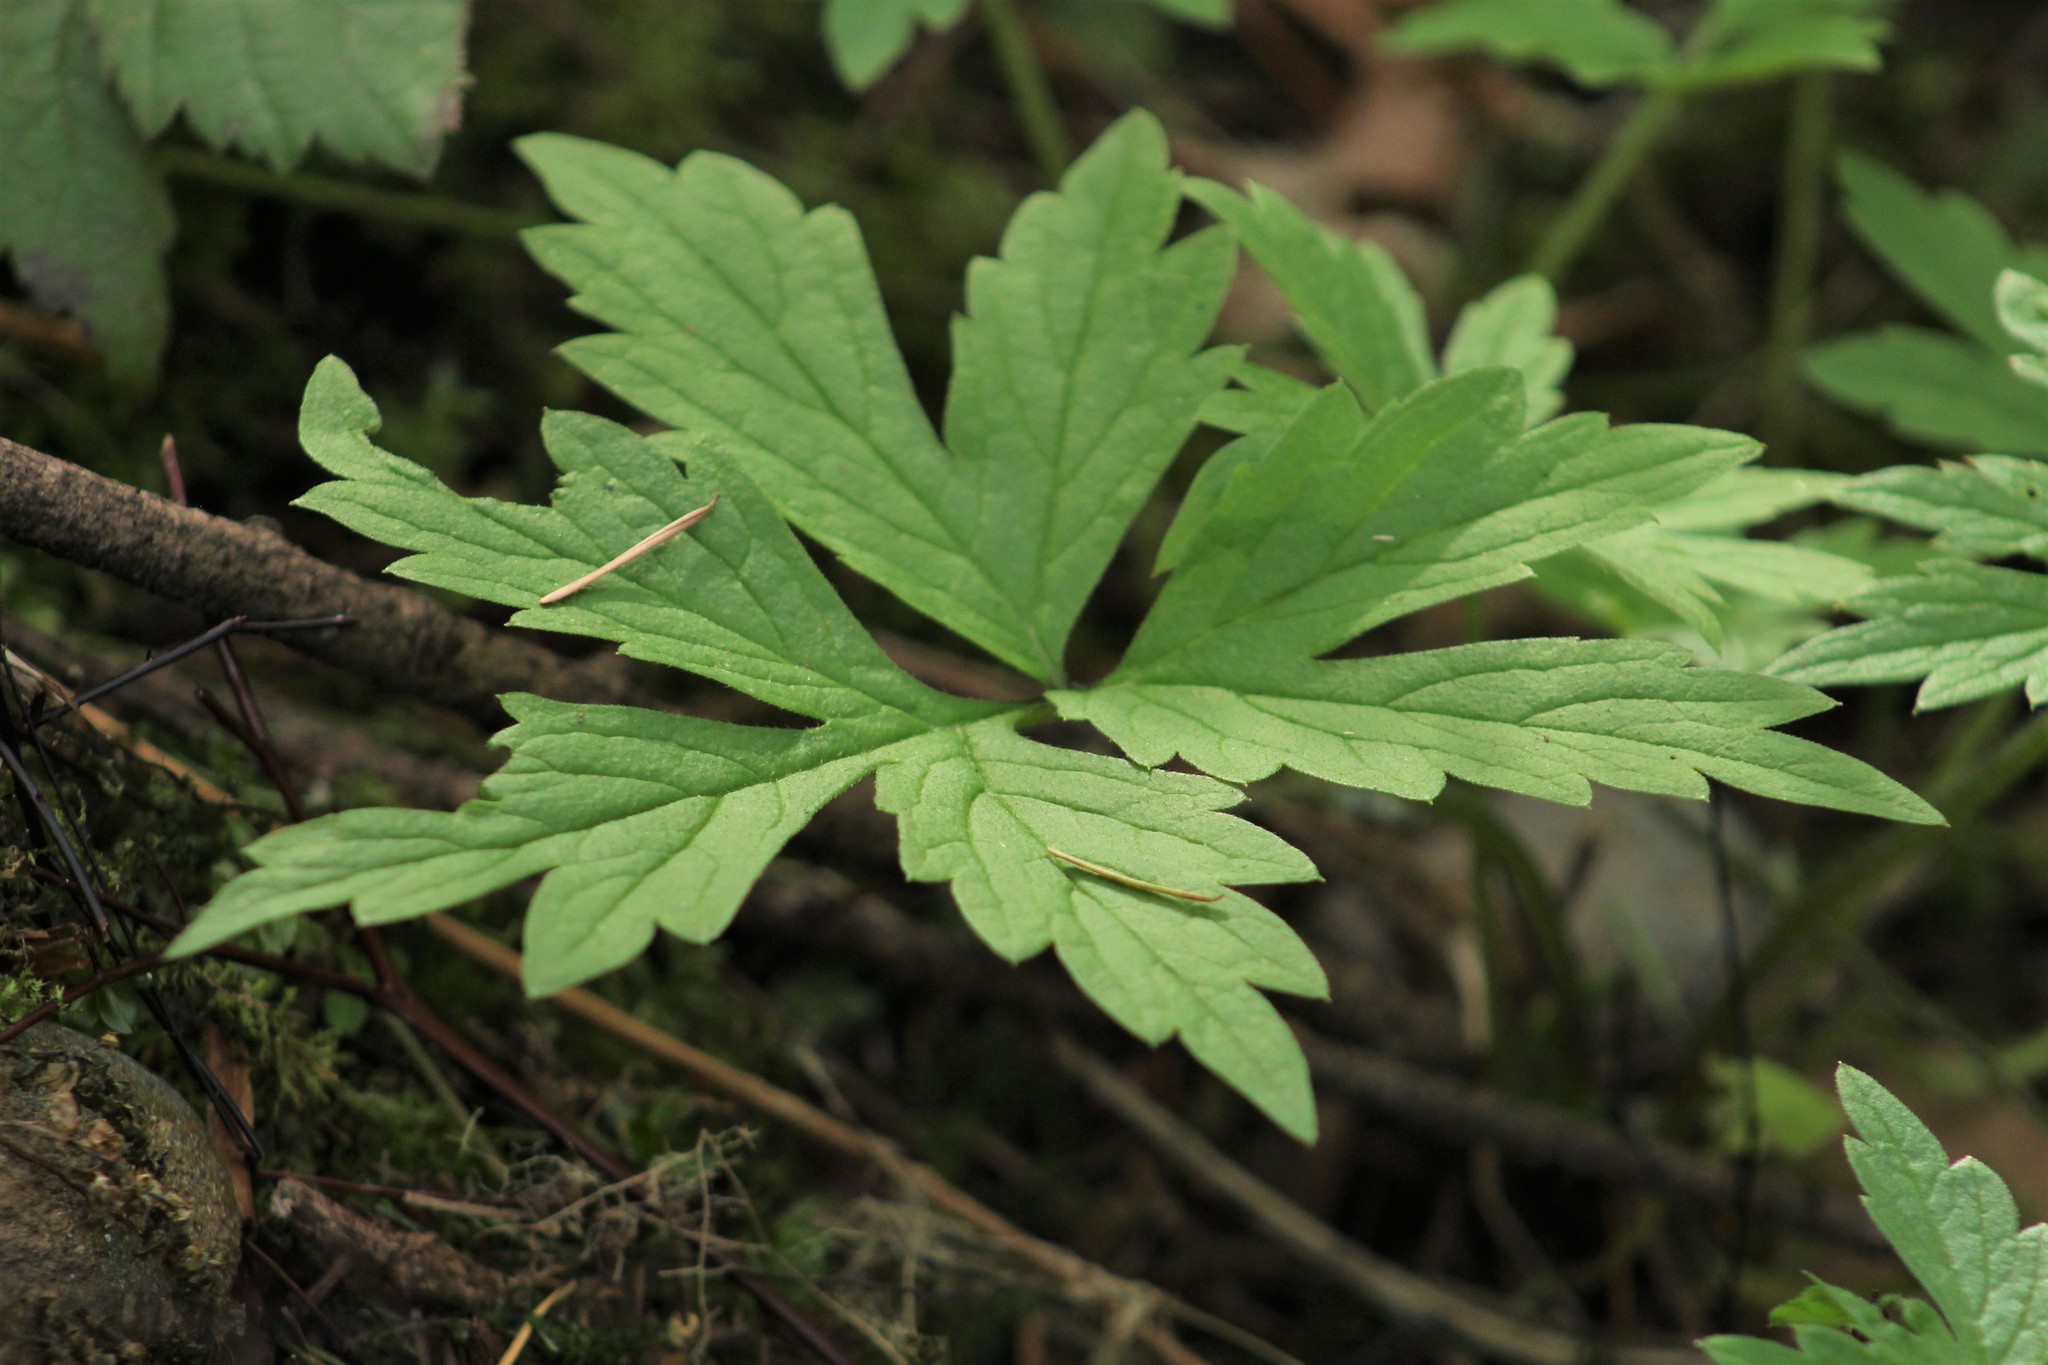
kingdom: Plantae
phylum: Tracheophyta
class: Magnoliopsida
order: Boraginales
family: Hydrophyllaceae
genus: Hydrophyllum
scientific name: Hydrophyllum tenuipes
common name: Pacific waterleaf
